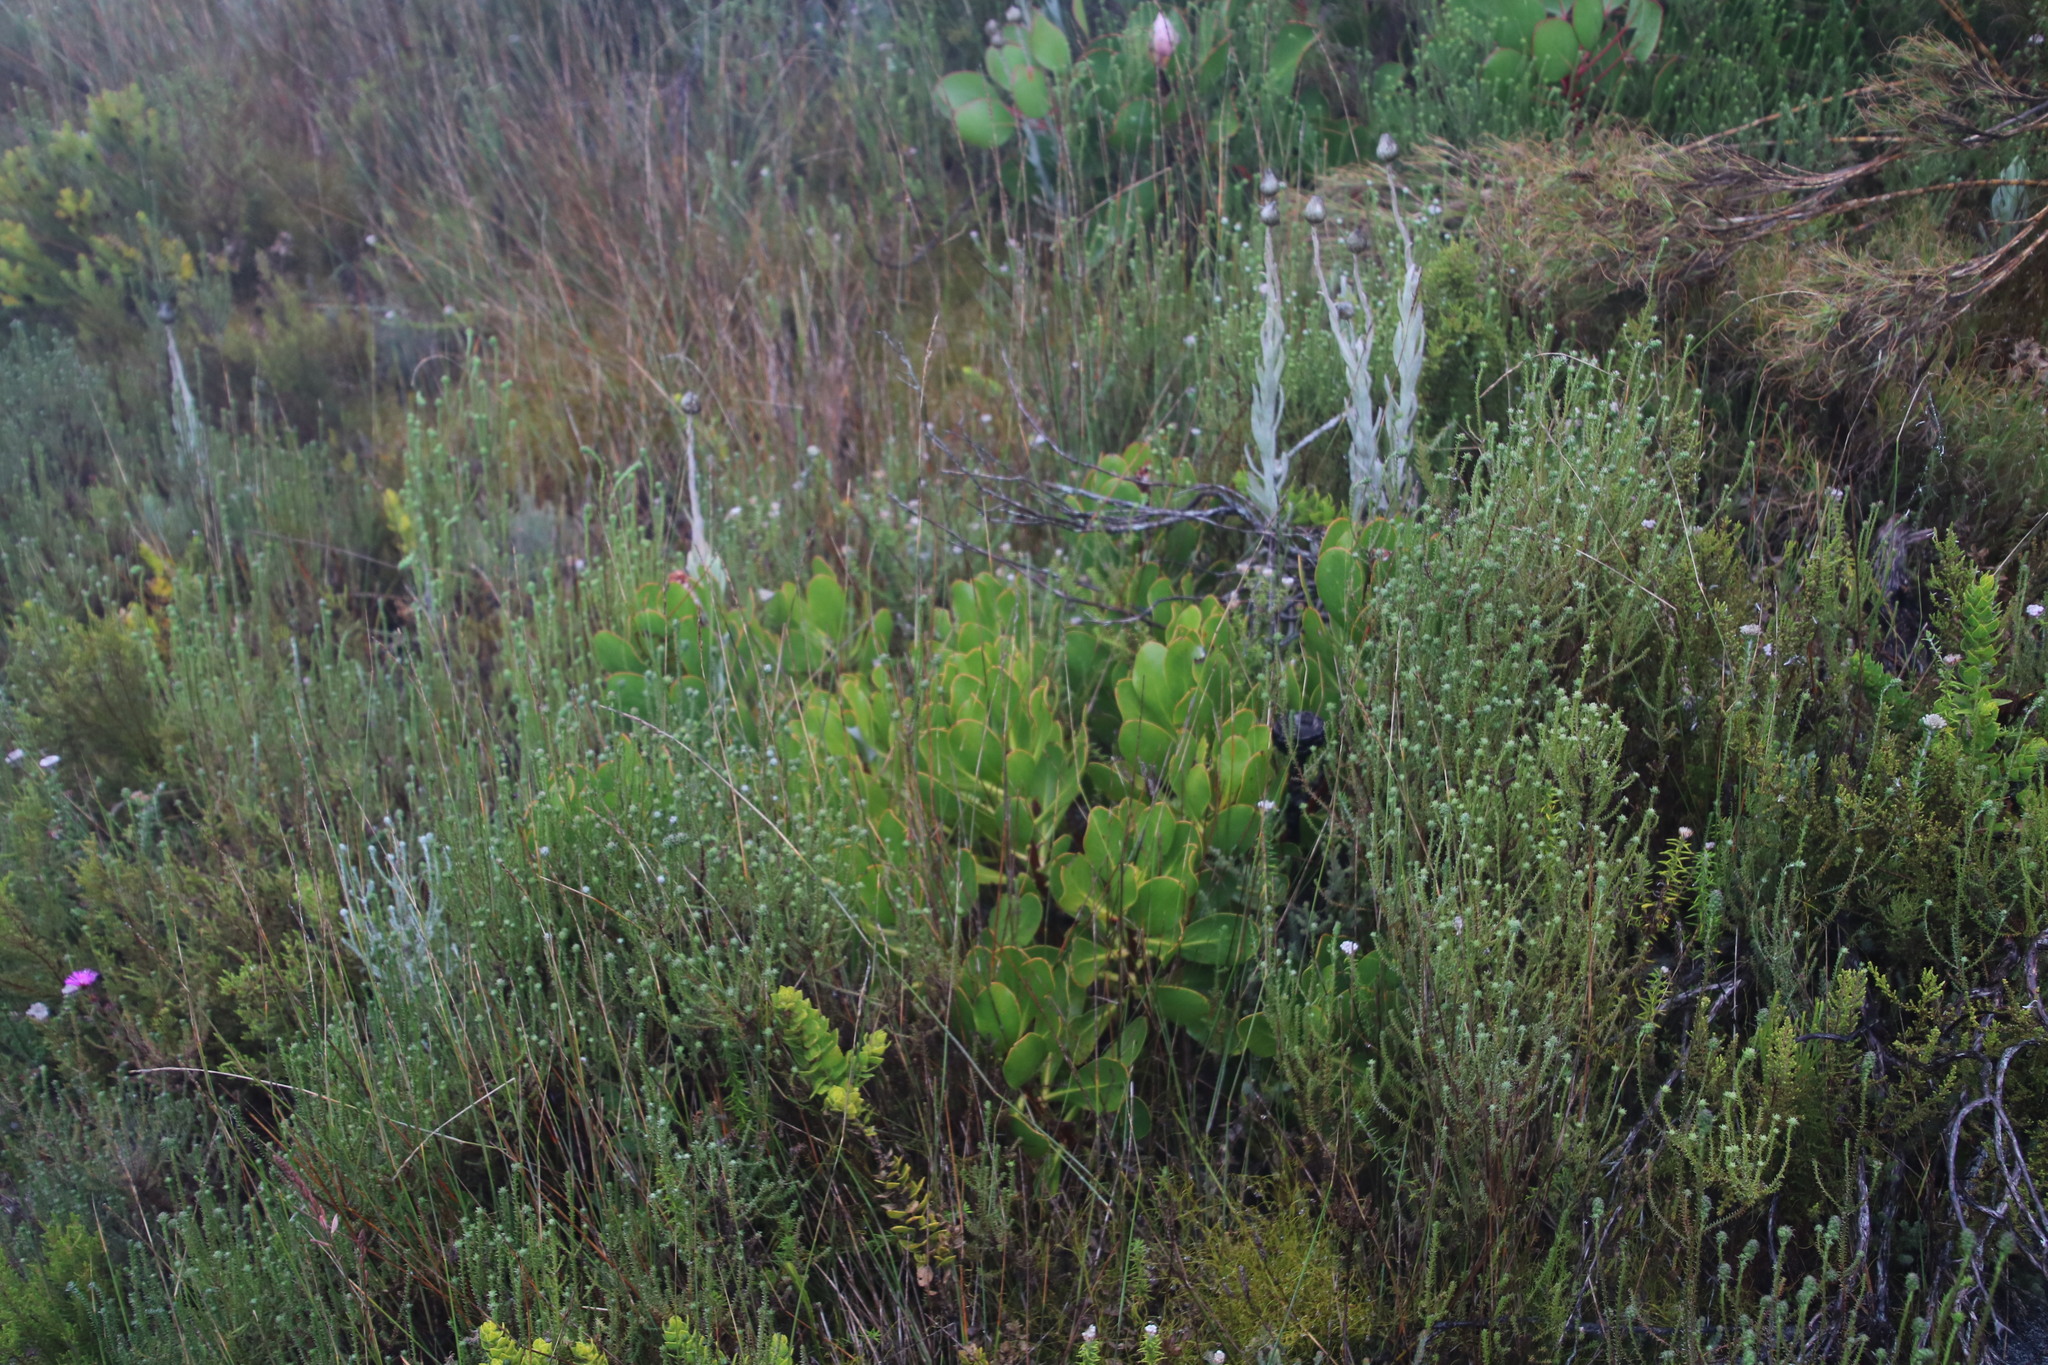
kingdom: Plantae
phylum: Tracheophyta
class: Magnoliopsida
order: Proteales
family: Proteaceae
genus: Protea
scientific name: Protea speciosa
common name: Brown-beard sugarbush
